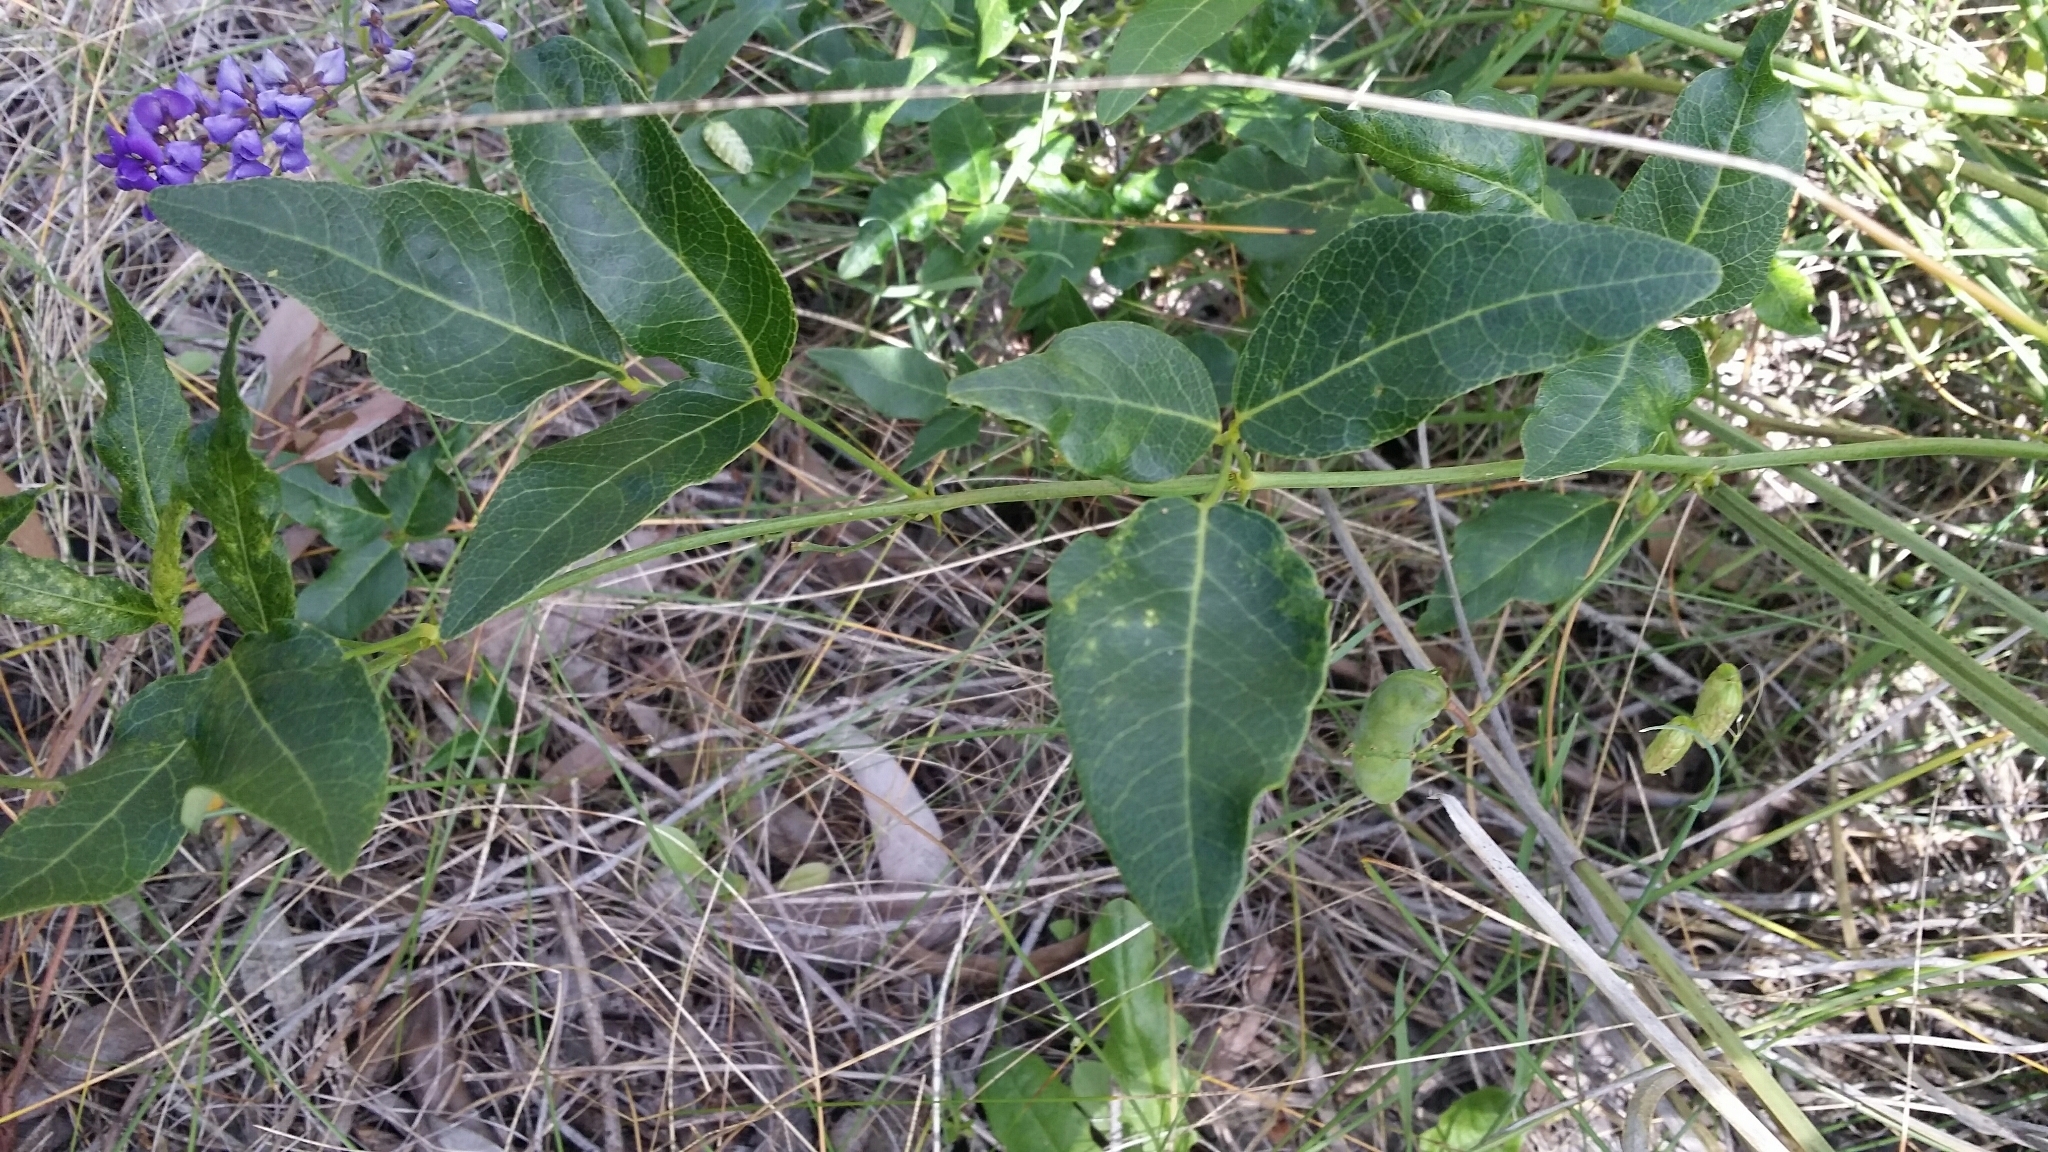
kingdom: Plantae
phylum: Tracheophyta
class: Magnoliopsida
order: Fabales
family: Fabaceae
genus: Hardenbergia
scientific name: Hardenbergia comptoniana
